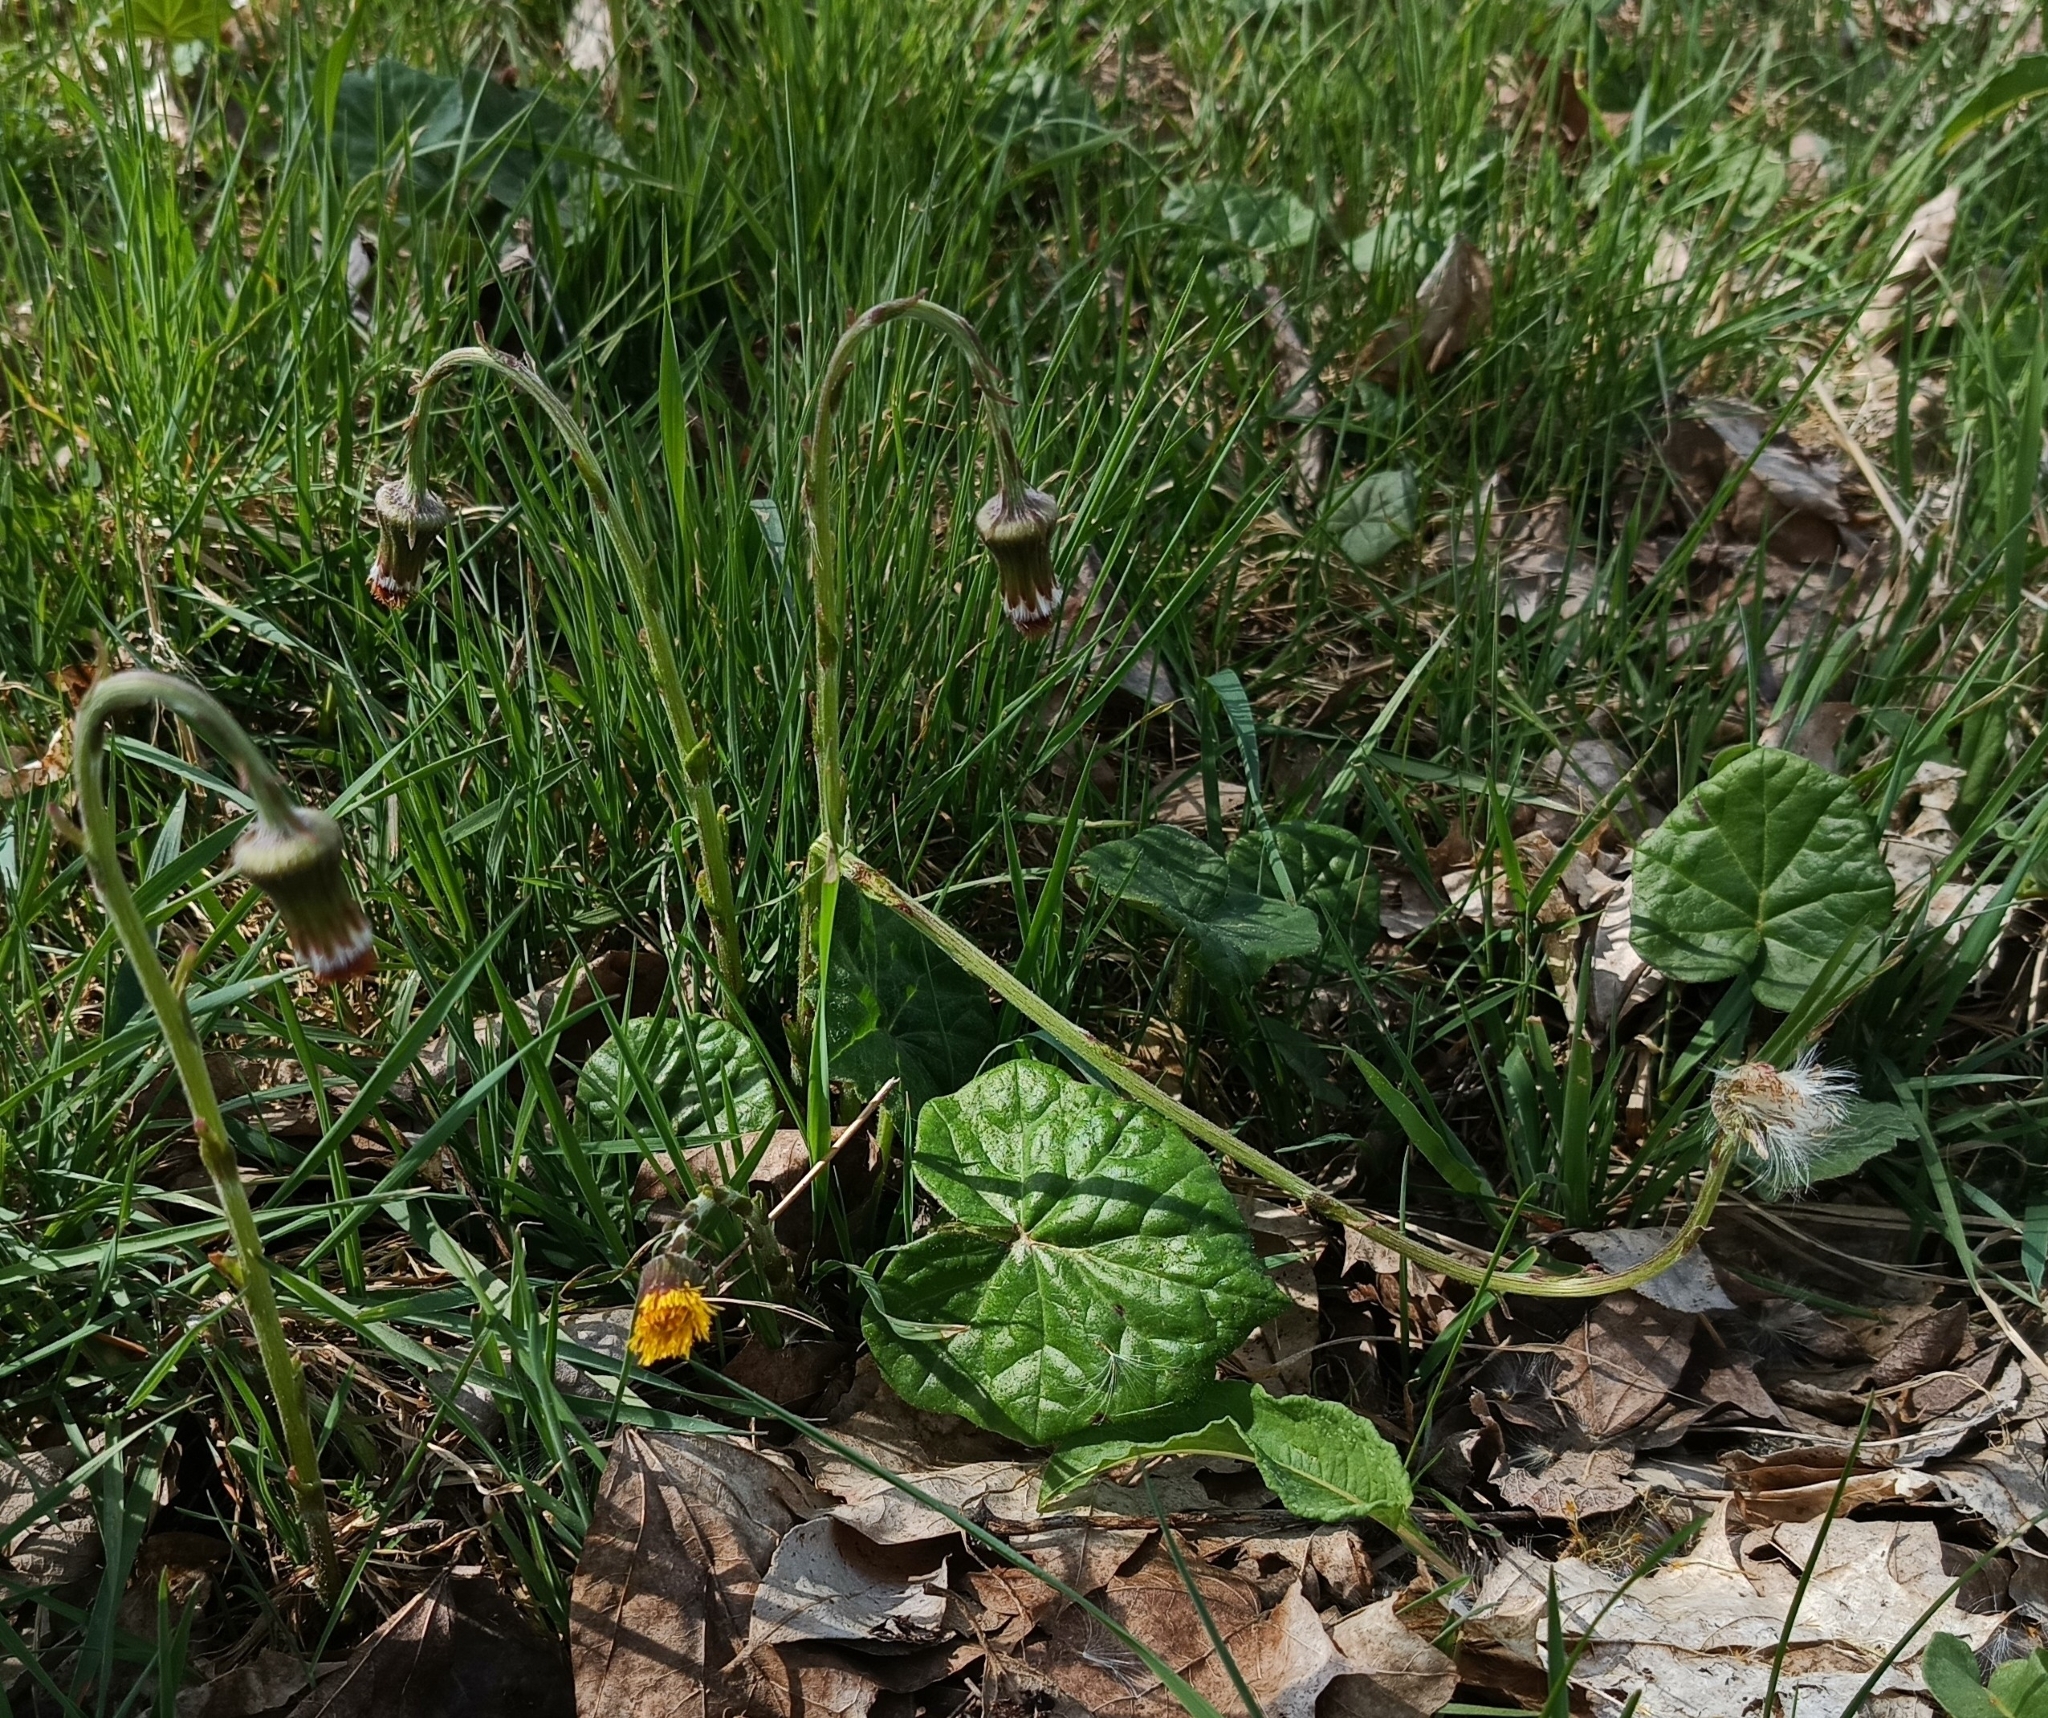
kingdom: Plantae
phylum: Tracheophyta
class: Magnoliopsida
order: Asterales
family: Asteraceae
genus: Tussilago
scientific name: Tussilago farfara
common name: Coltsfoot
